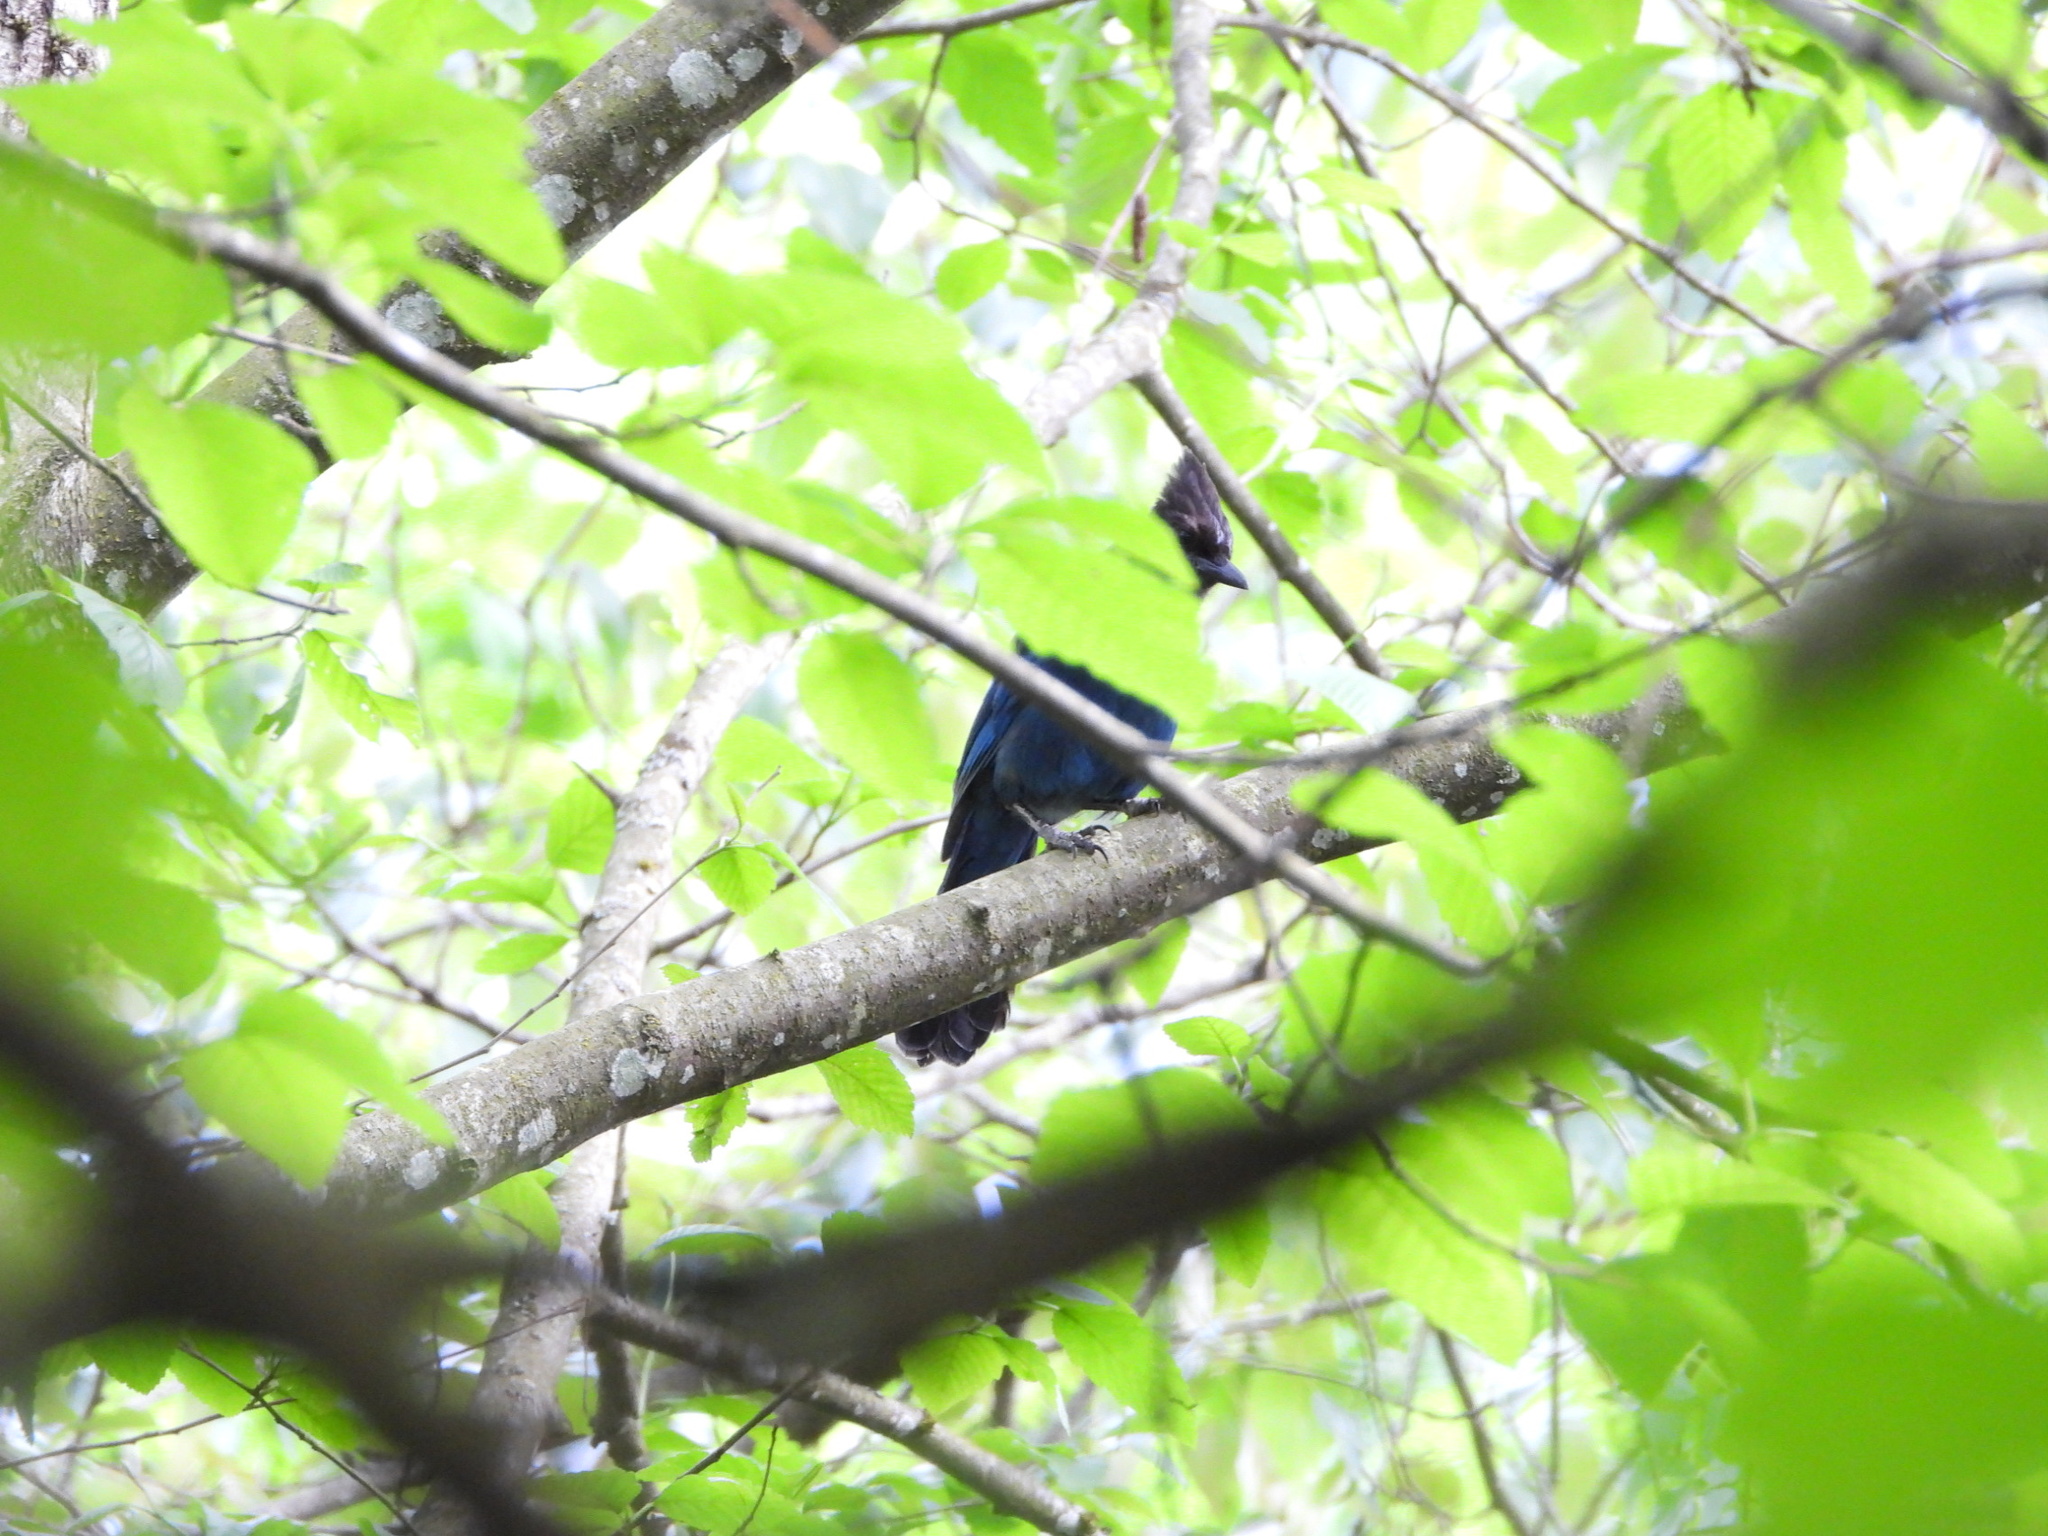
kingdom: Animalia
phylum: Chordata
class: Aves
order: Passeriformes
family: Corvidae
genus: Cyanocitta
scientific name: Cyanocitta stelleri
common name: Steller's jay
